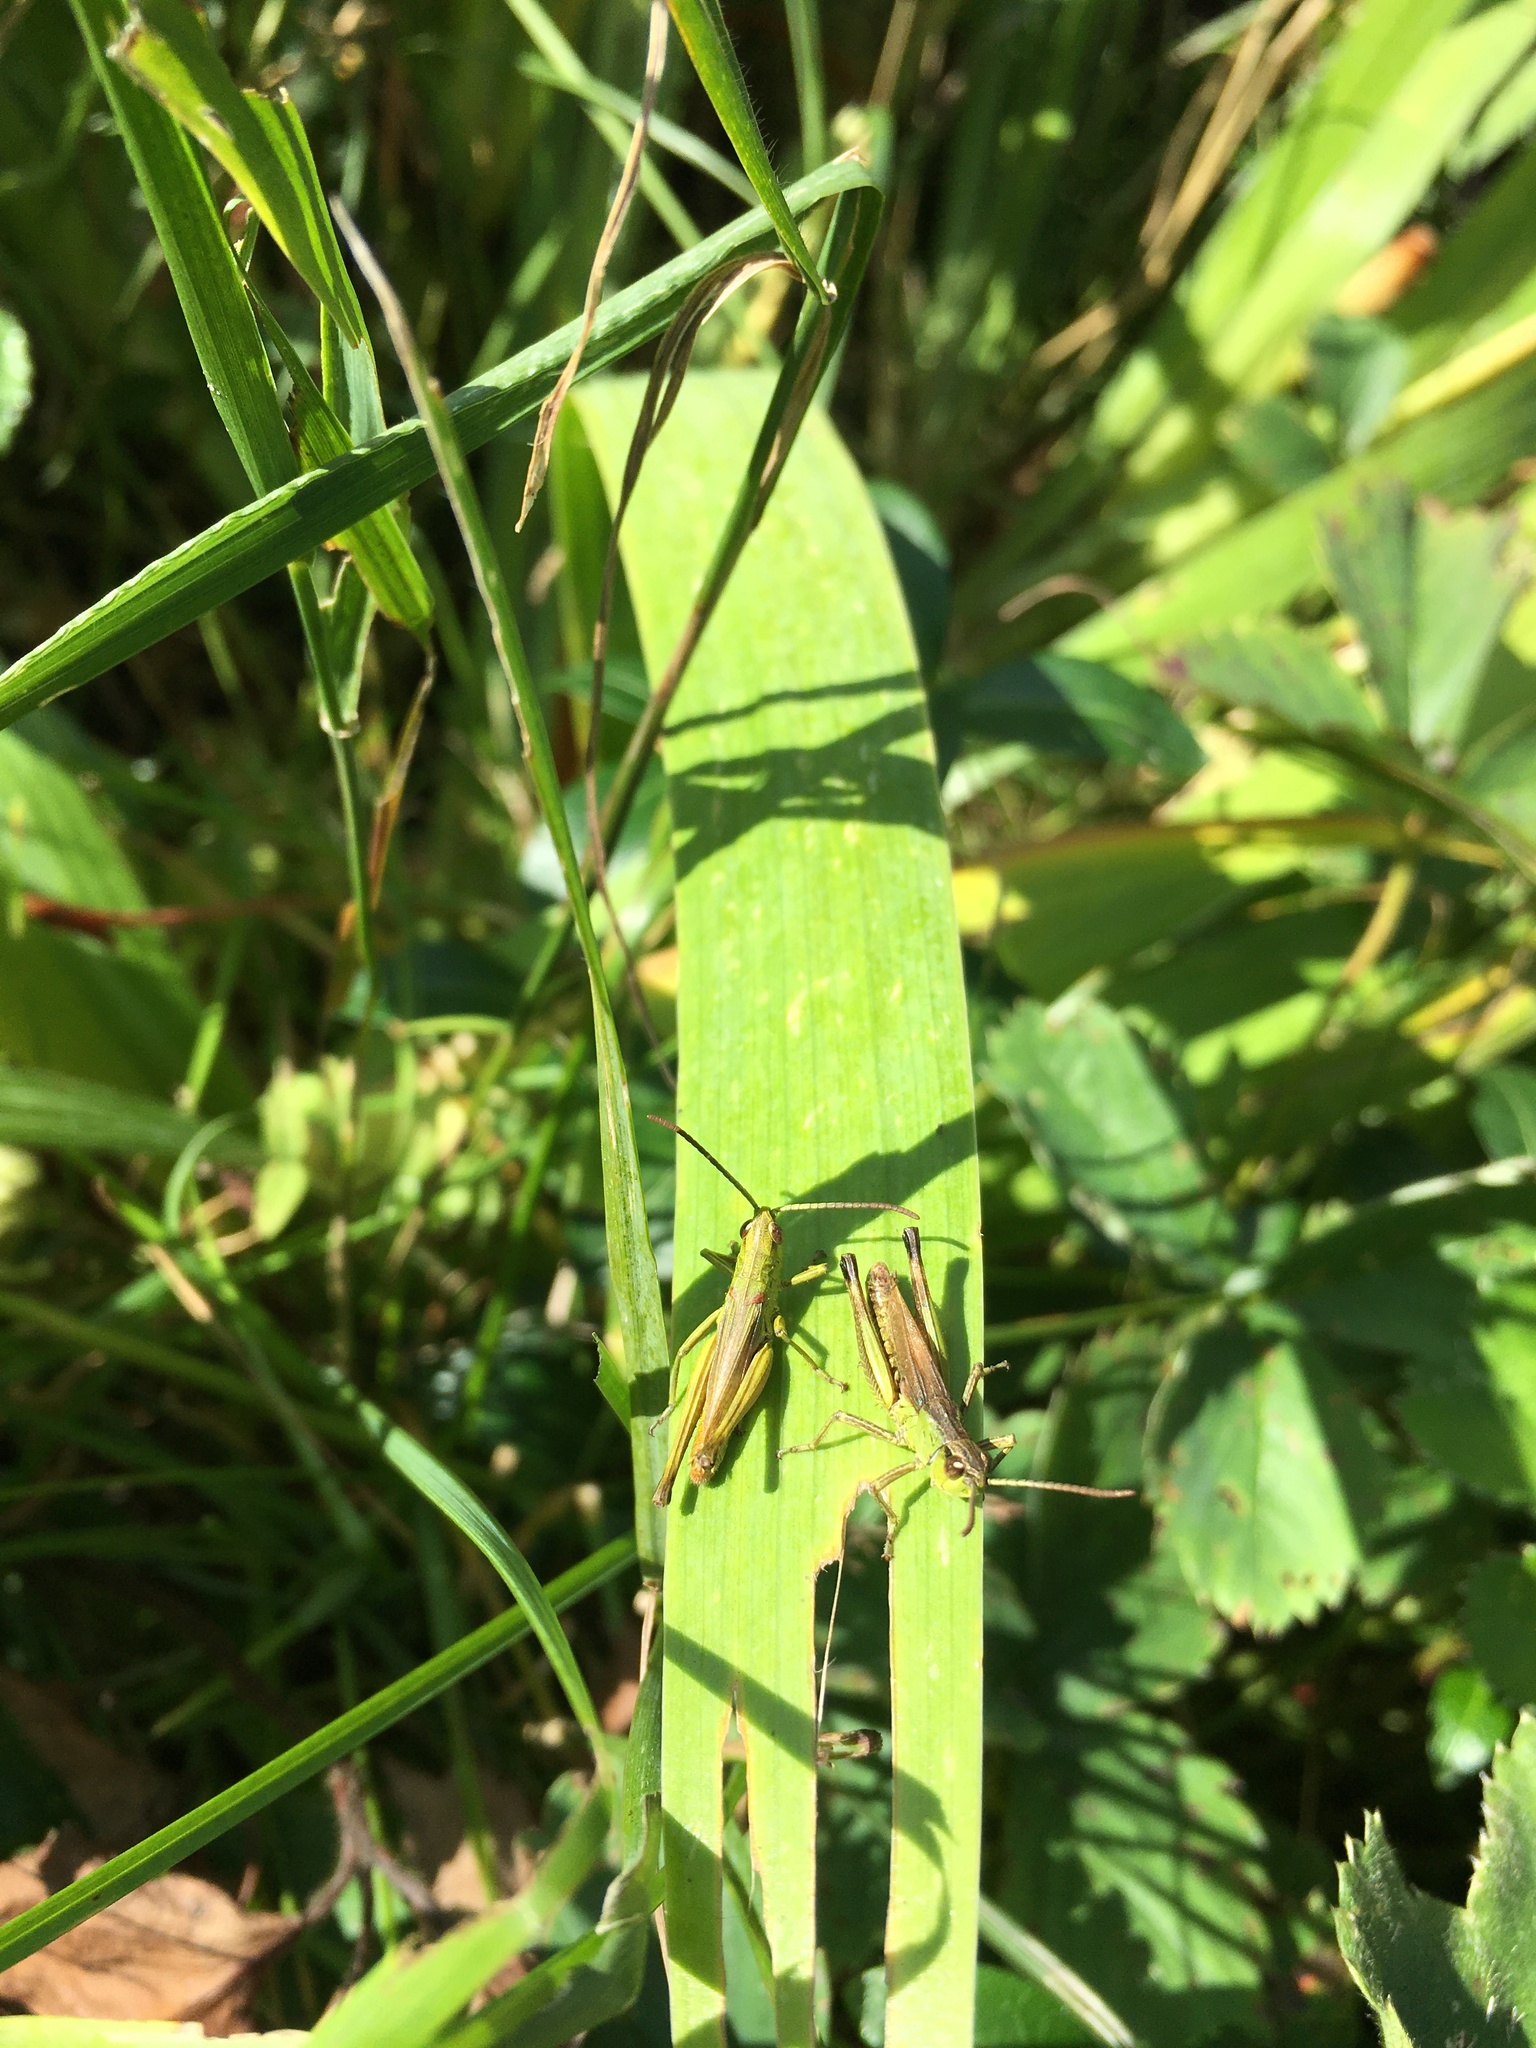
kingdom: Animalia
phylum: Arthropoda
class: Insecta
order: Orthoptera
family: Acrididae
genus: Pseudochorthippus
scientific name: Pseudochorthippus parallelus
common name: Meadow grasshopper
